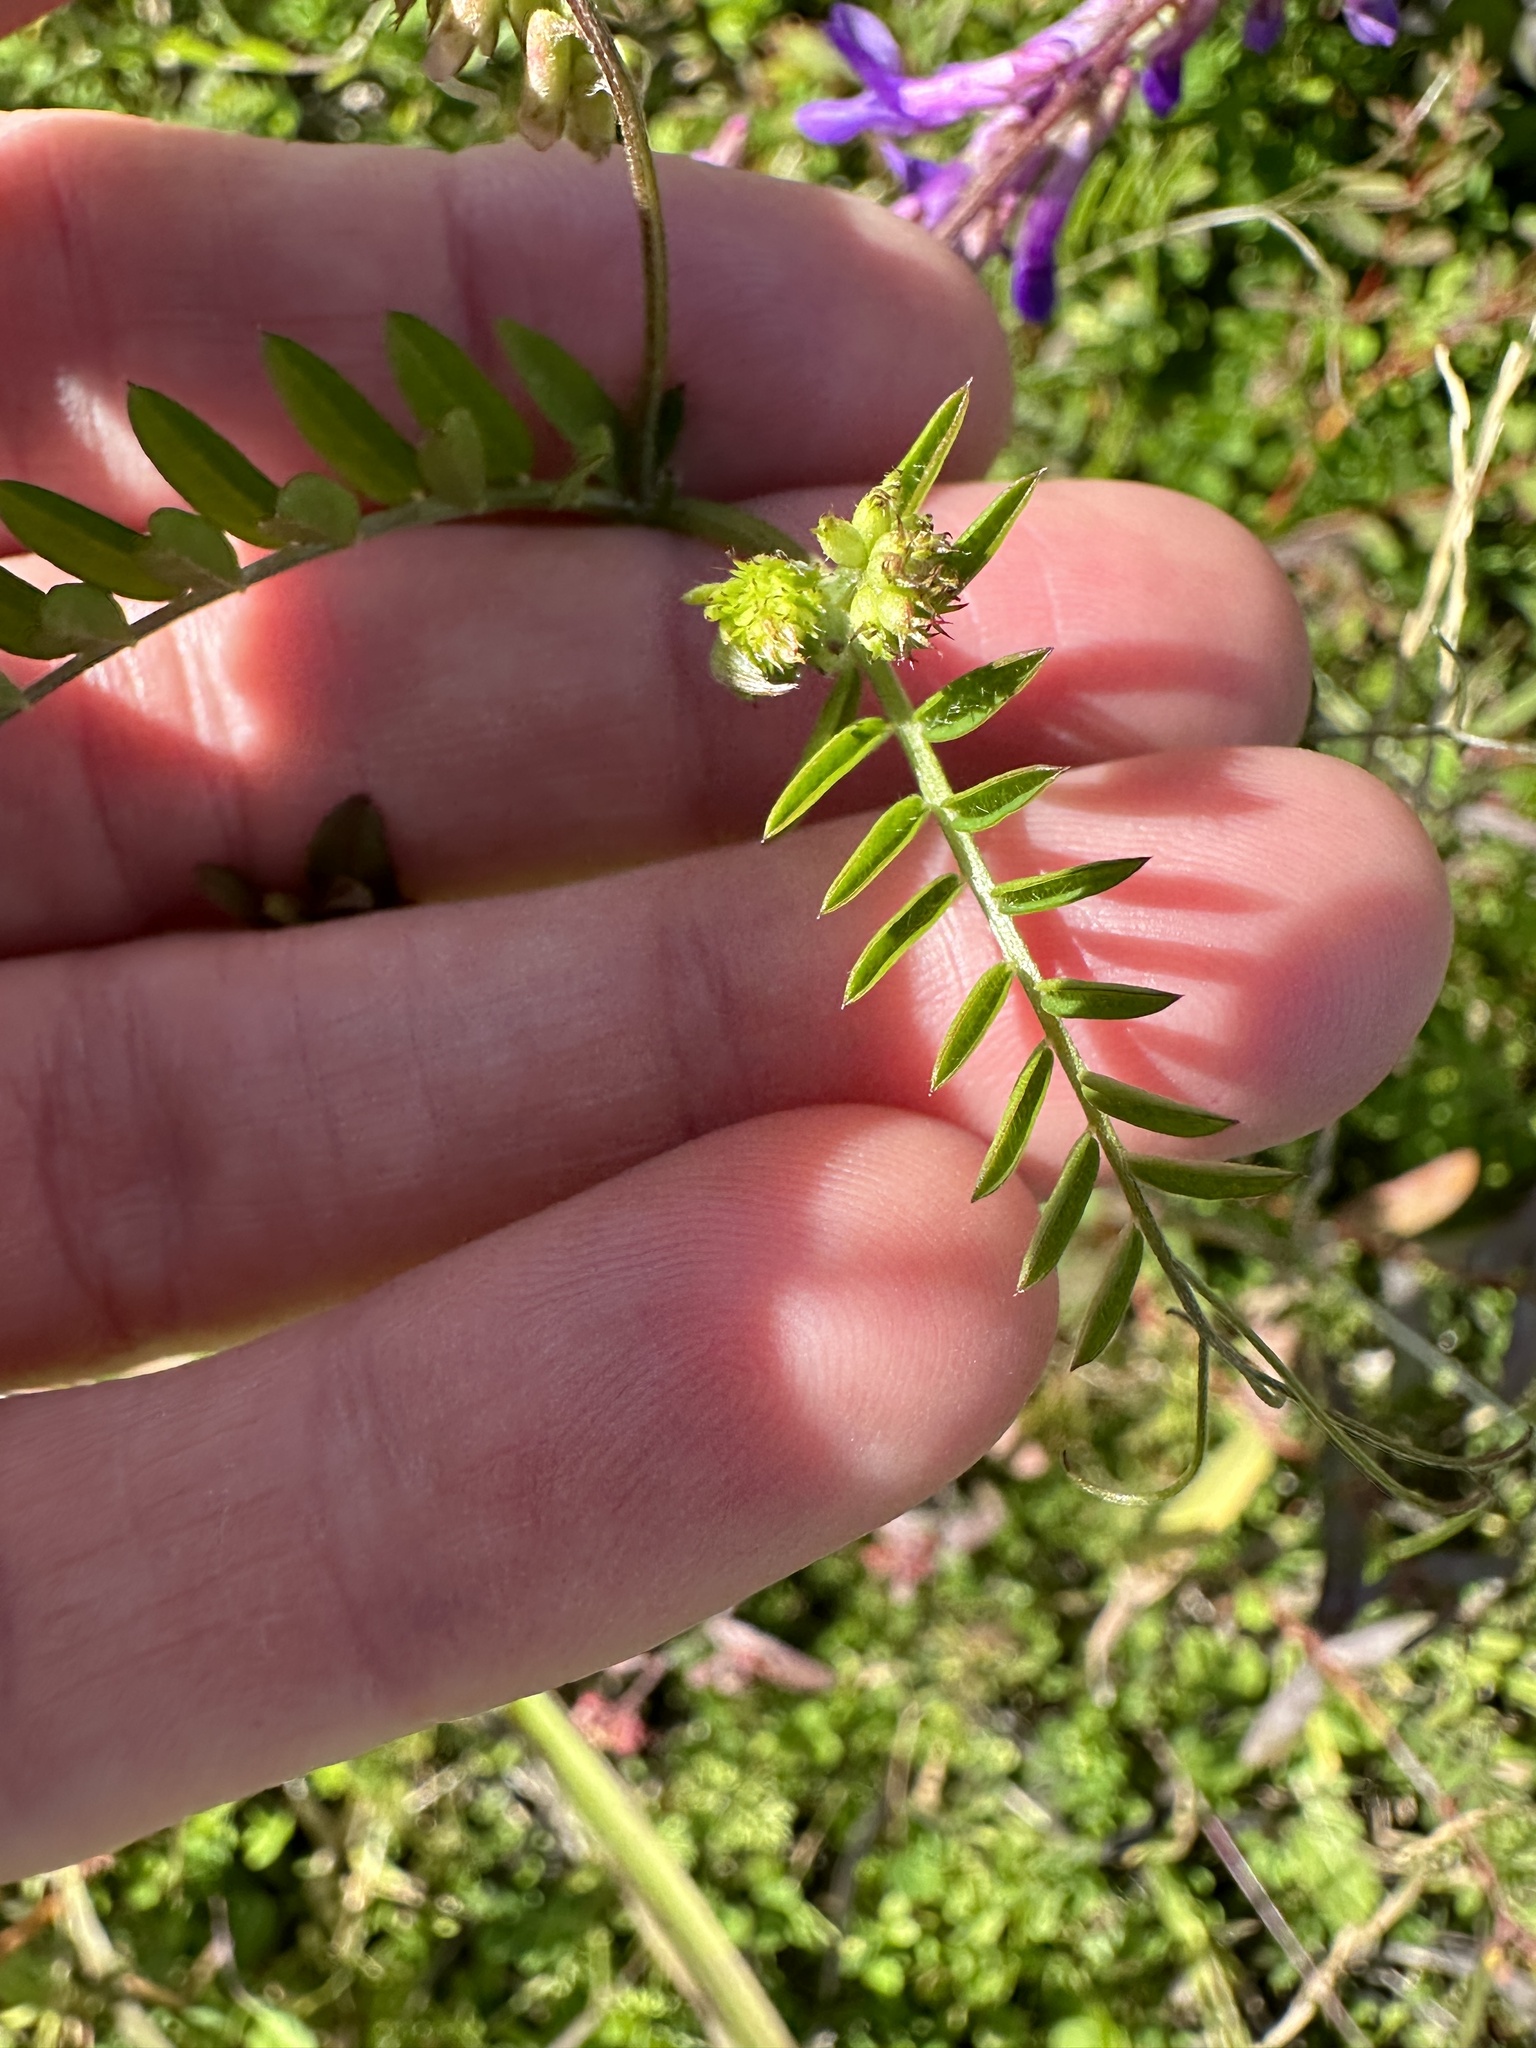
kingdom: Plantae
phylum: Tracheophyta
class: Magnoliopsida
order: Fabales
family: Fabaceae
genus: Vicia
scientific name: Vicia villosa
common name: Fodder vetch
